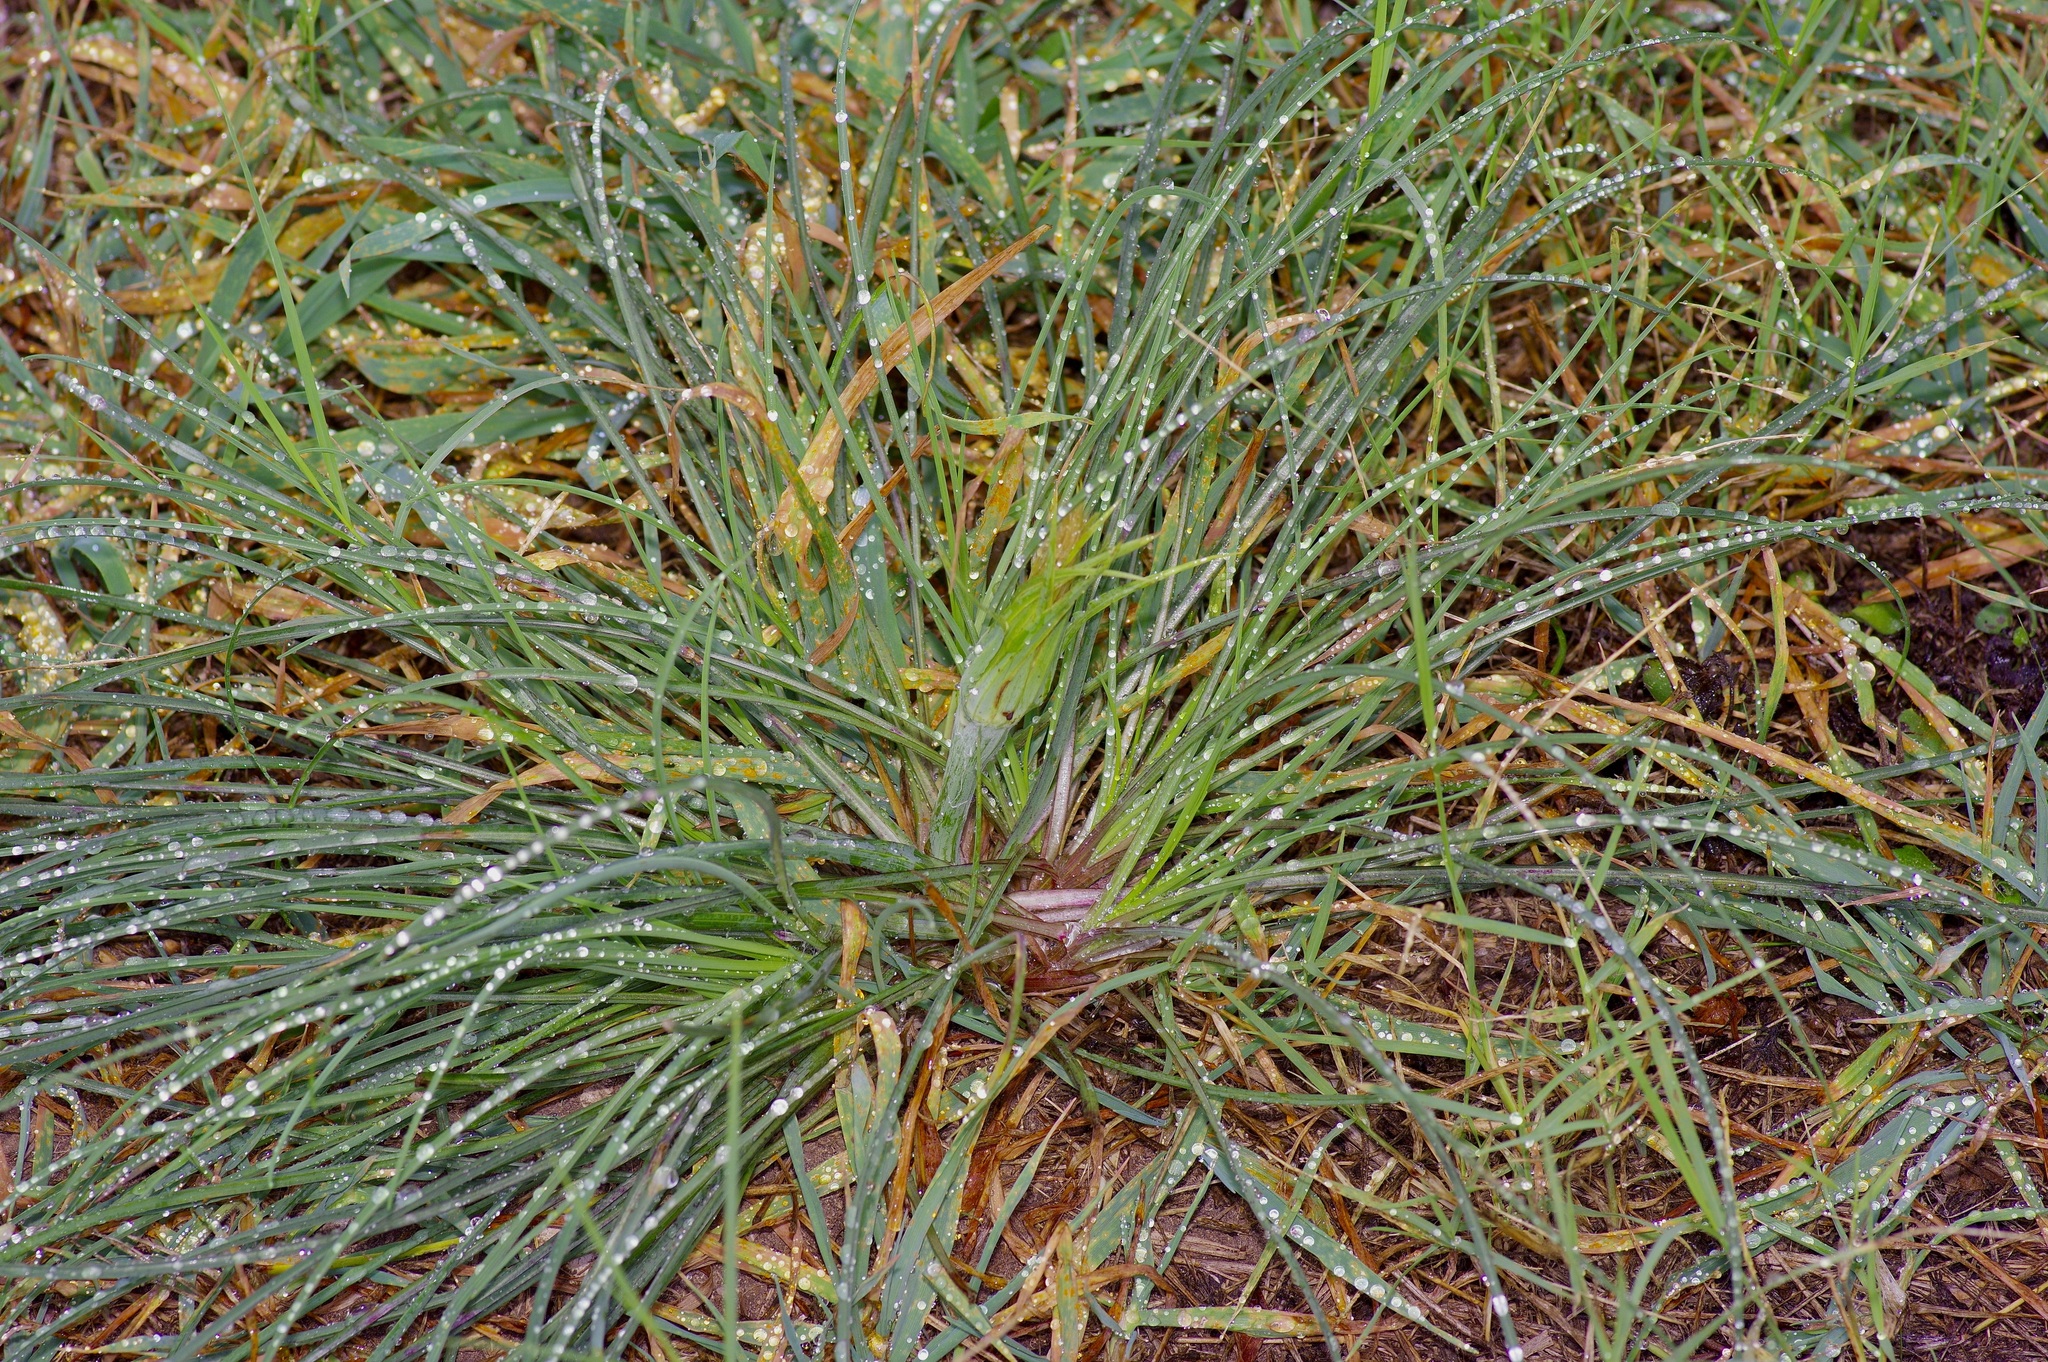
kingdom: Plantae
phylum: Tracheophyta
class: Magnoliopsida
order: Asterales
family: Asteraceae
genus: Tragopogon
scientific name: Tragopogon dubius
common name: Yellow salsify
